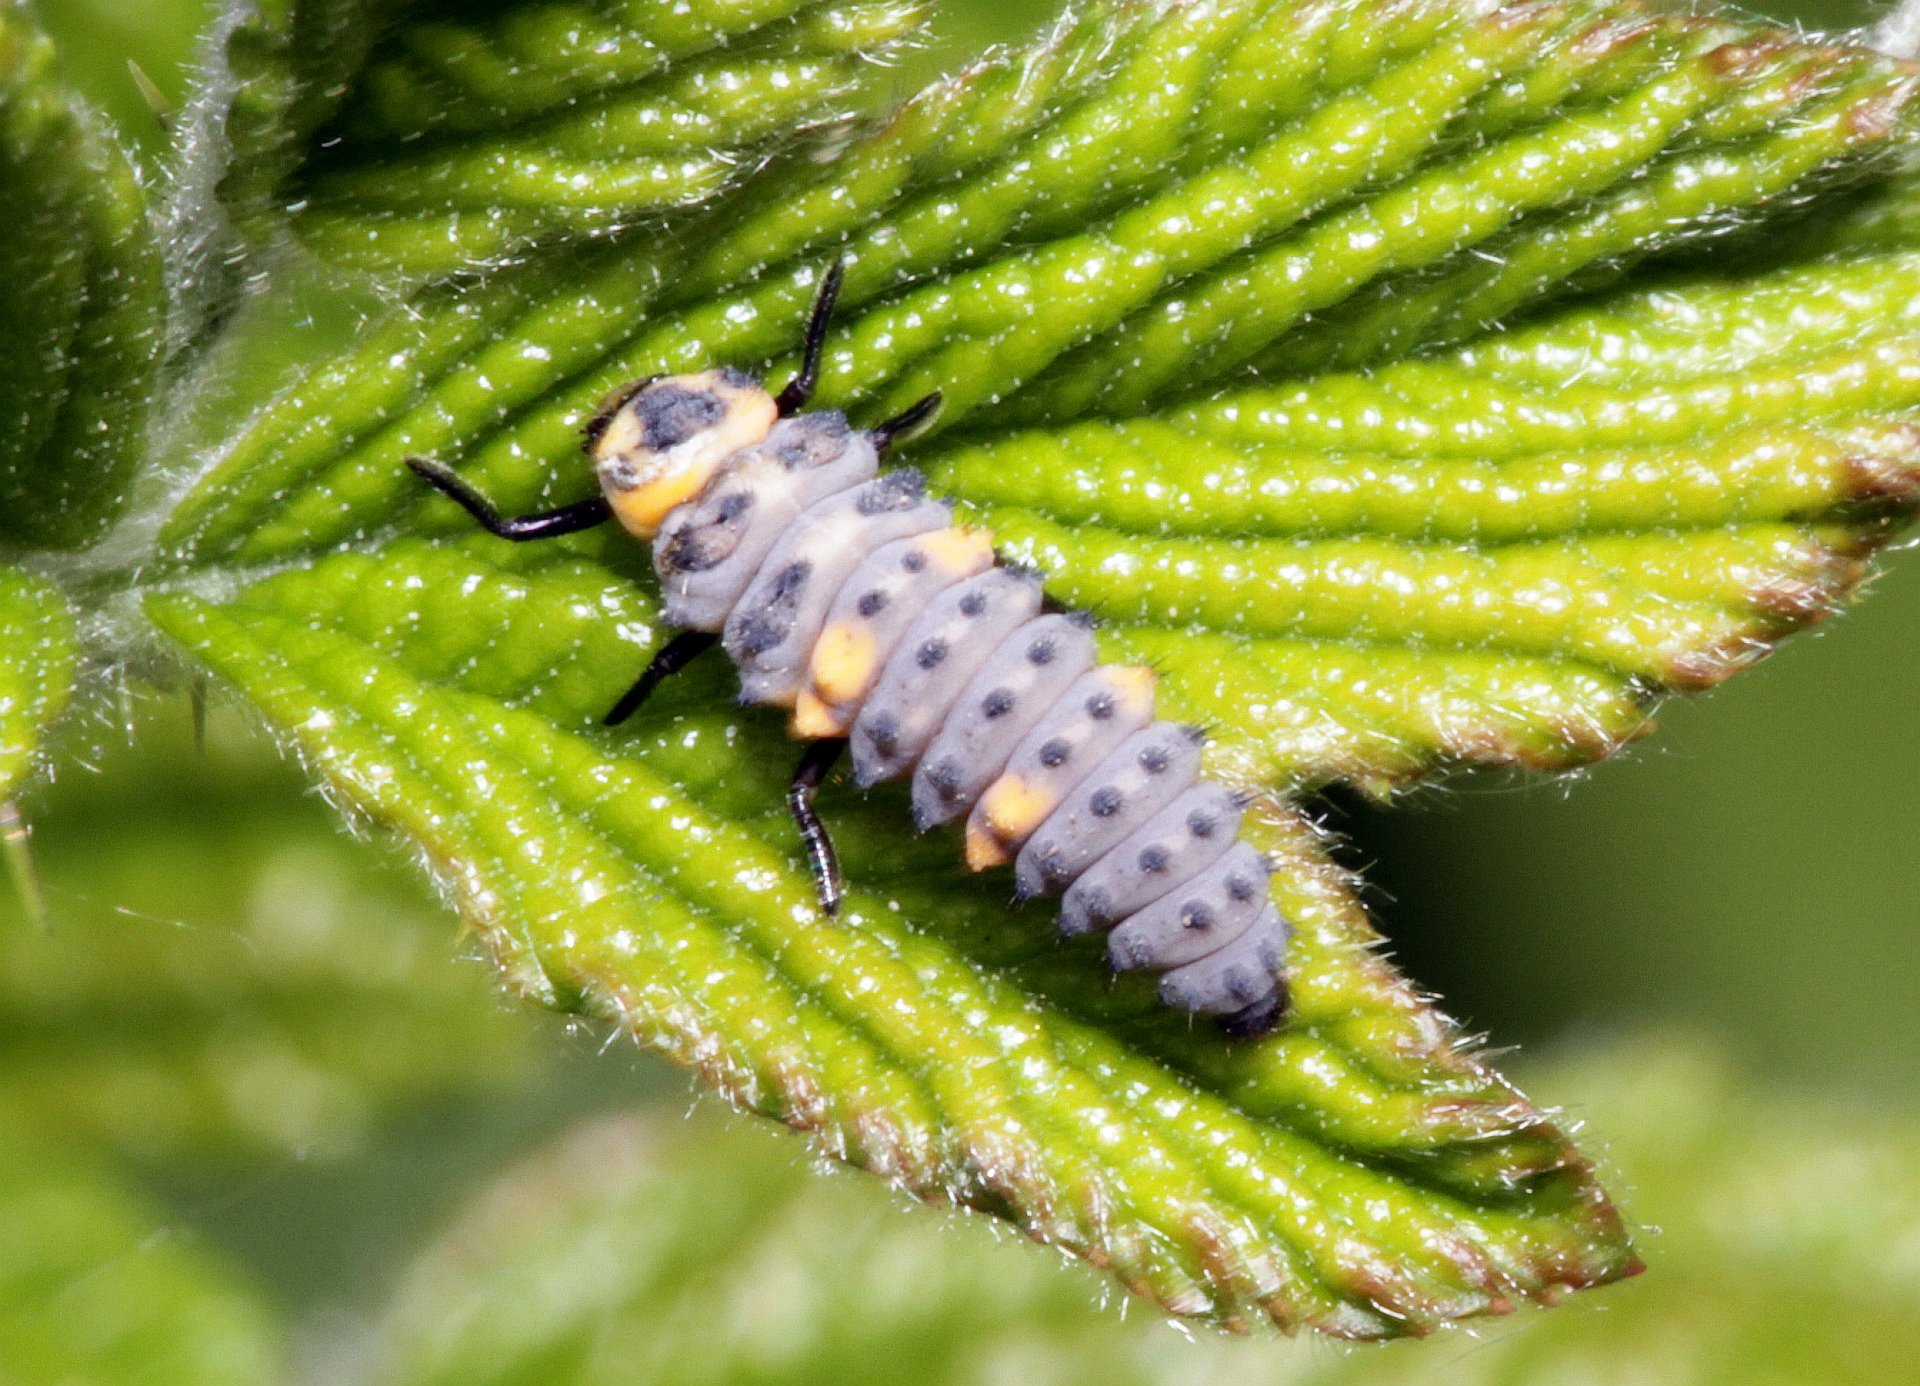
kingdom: Animalia
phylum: Arthropoda
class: Insecta
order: Coleoptera
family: Coccinellidae
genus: Coccinella
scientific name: Coccinella septempunctata
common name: Sevenspotted lady beetle
